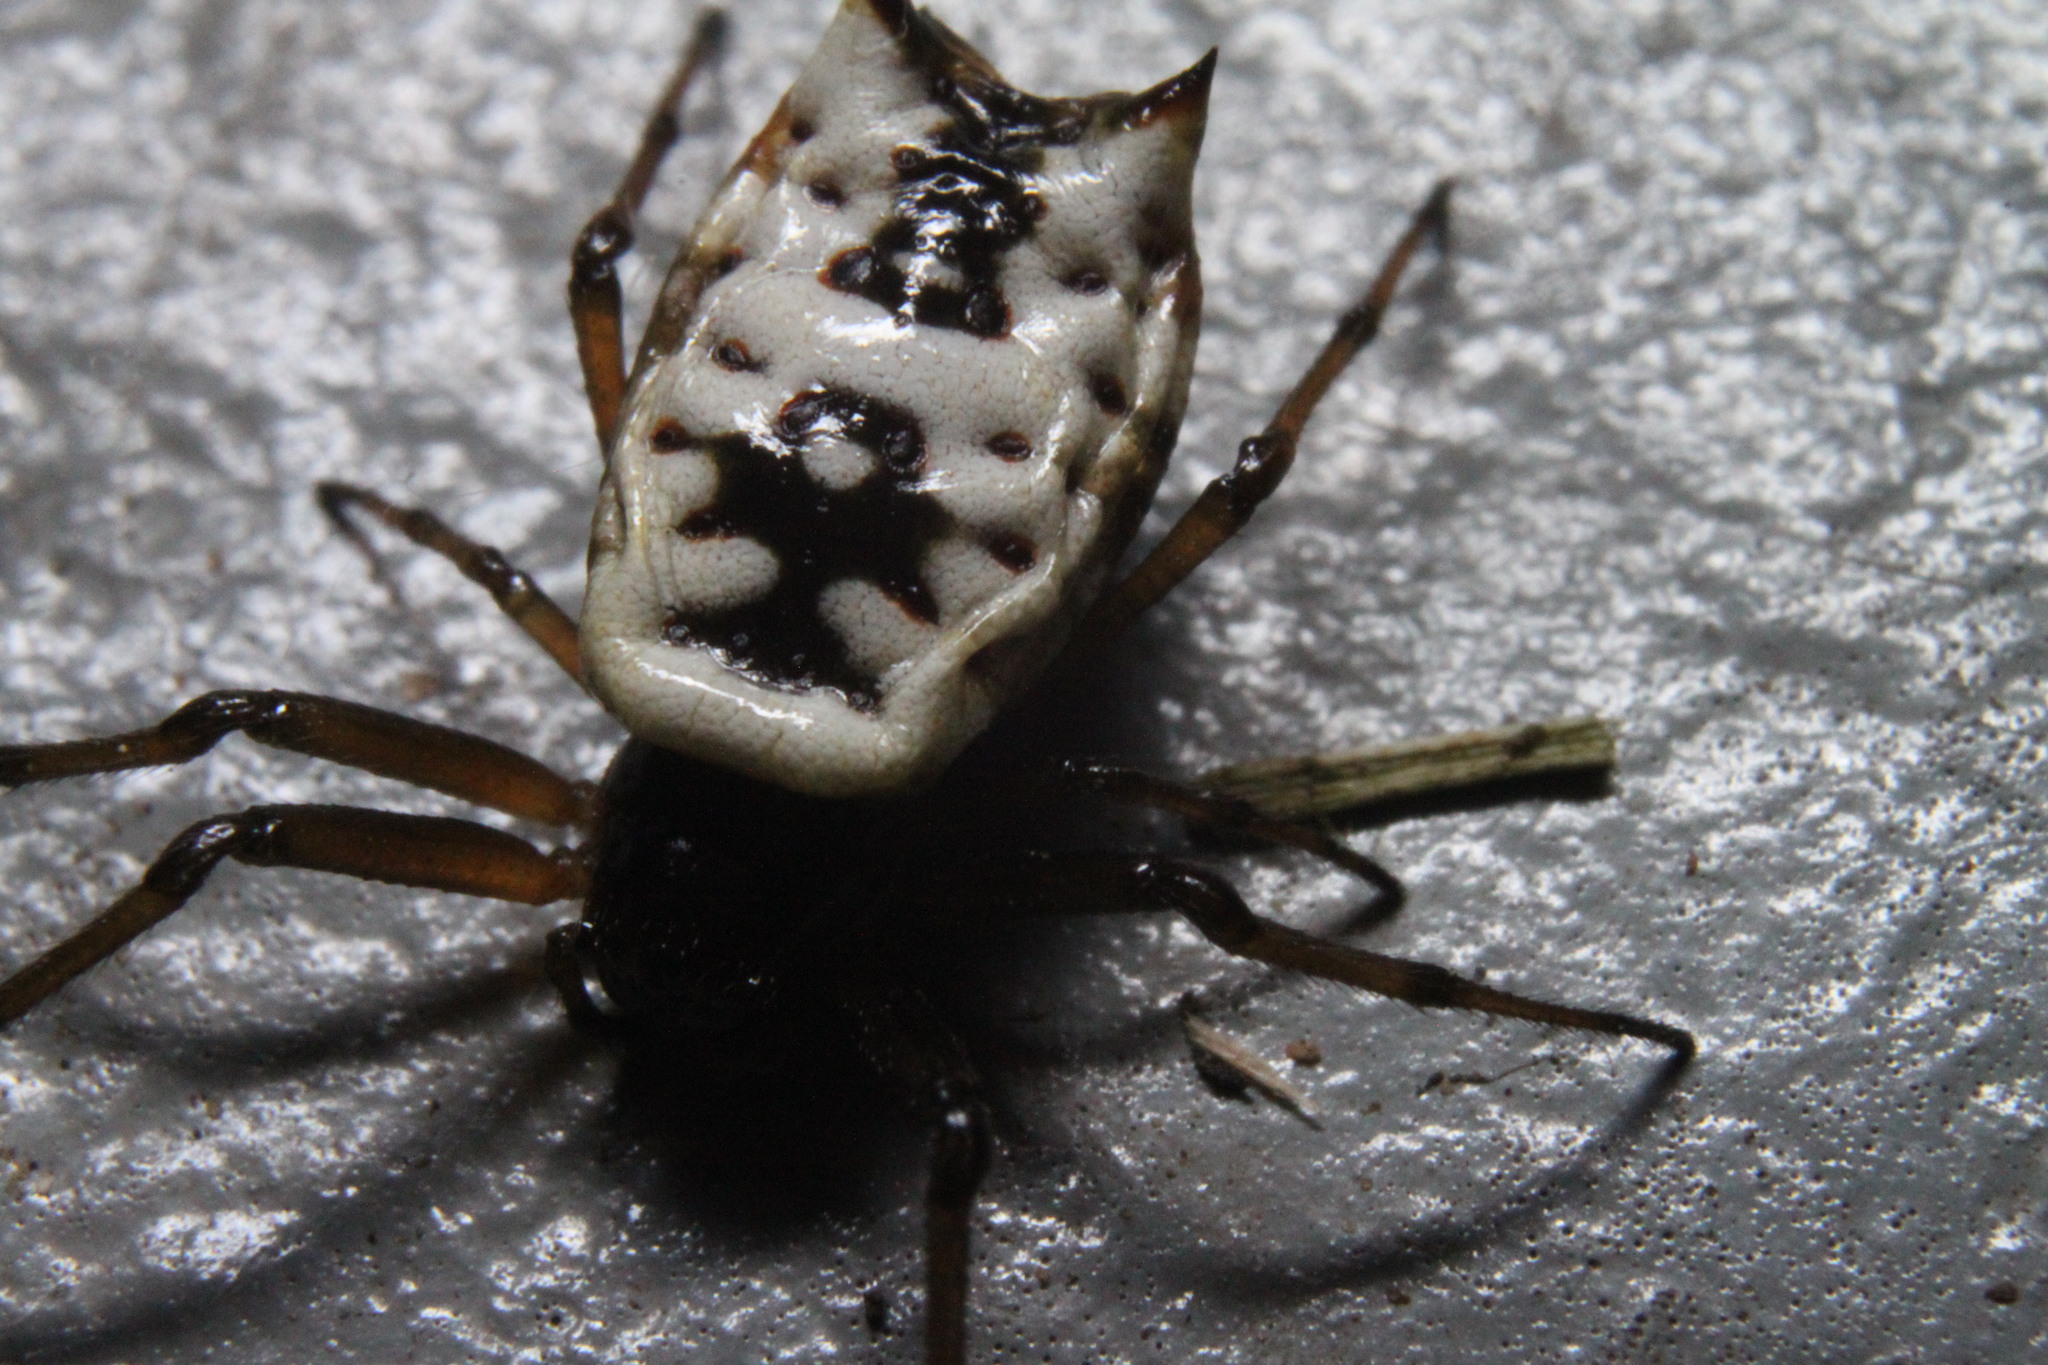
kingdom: Animalia
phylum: Arthropoda
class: Arachnida
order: Araneae
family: Araneidae
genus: Micrathena
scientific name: Micrathena mitrata
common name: Orb weavers
